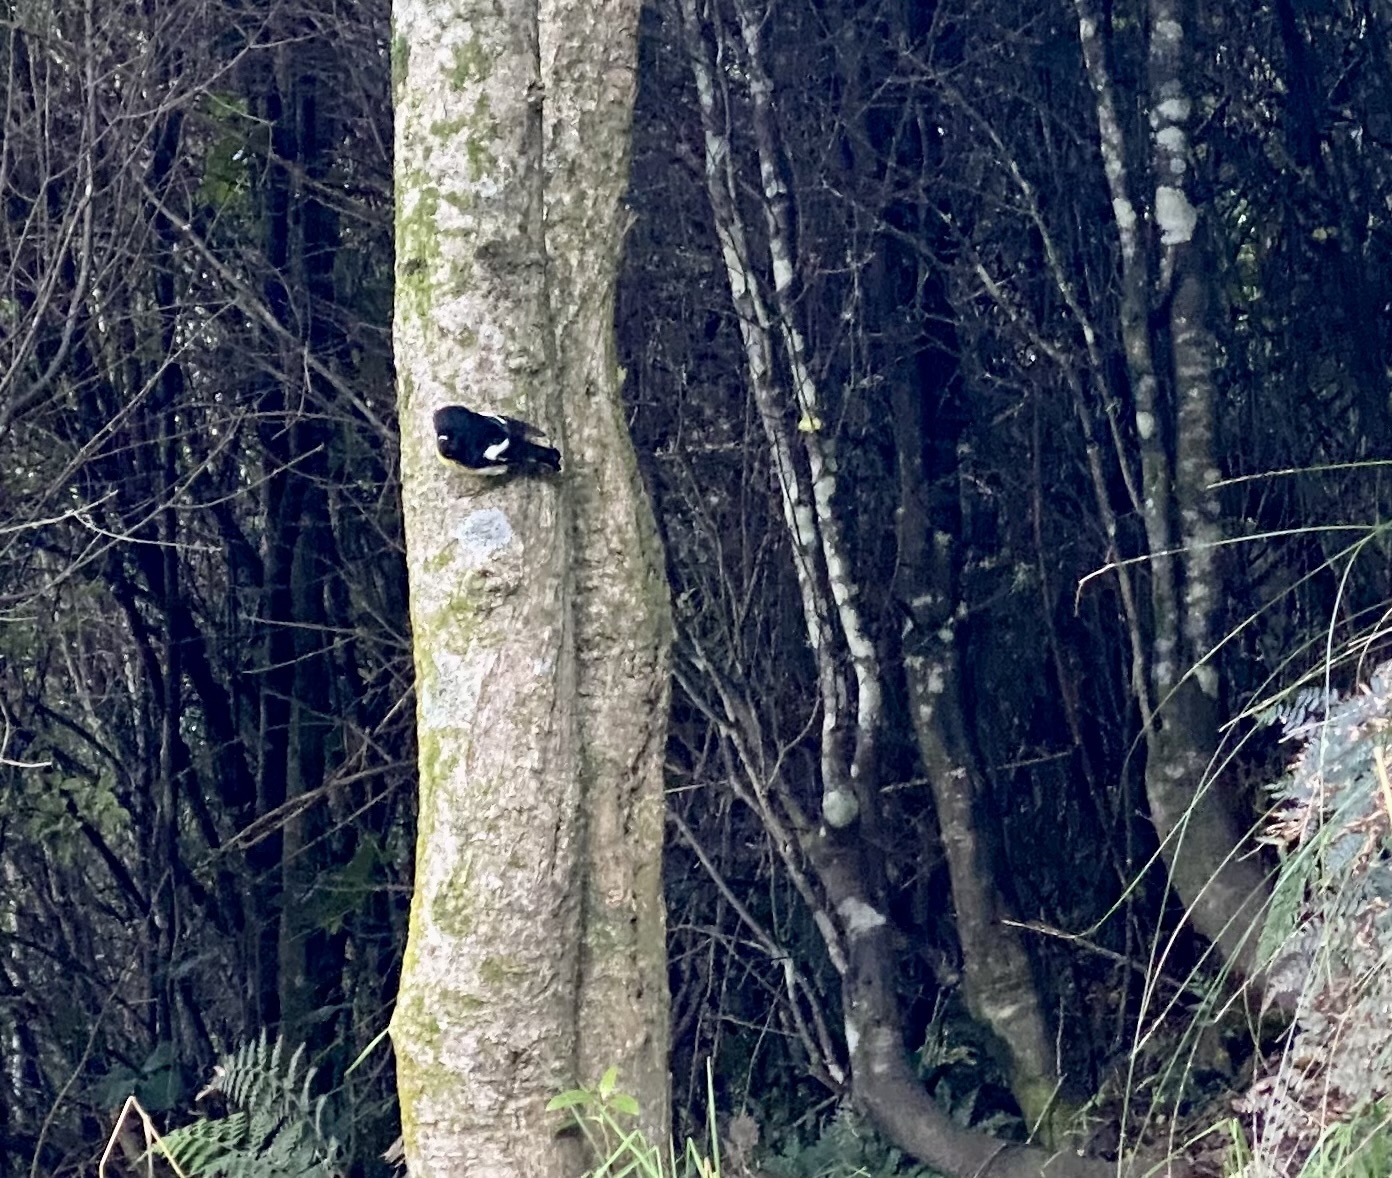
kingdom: Animalia
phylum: Chordata
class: Aves
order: Passeriformes
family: Petroicidae
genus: Petroica
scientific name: Petroica macrocephala
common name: Tomtit
